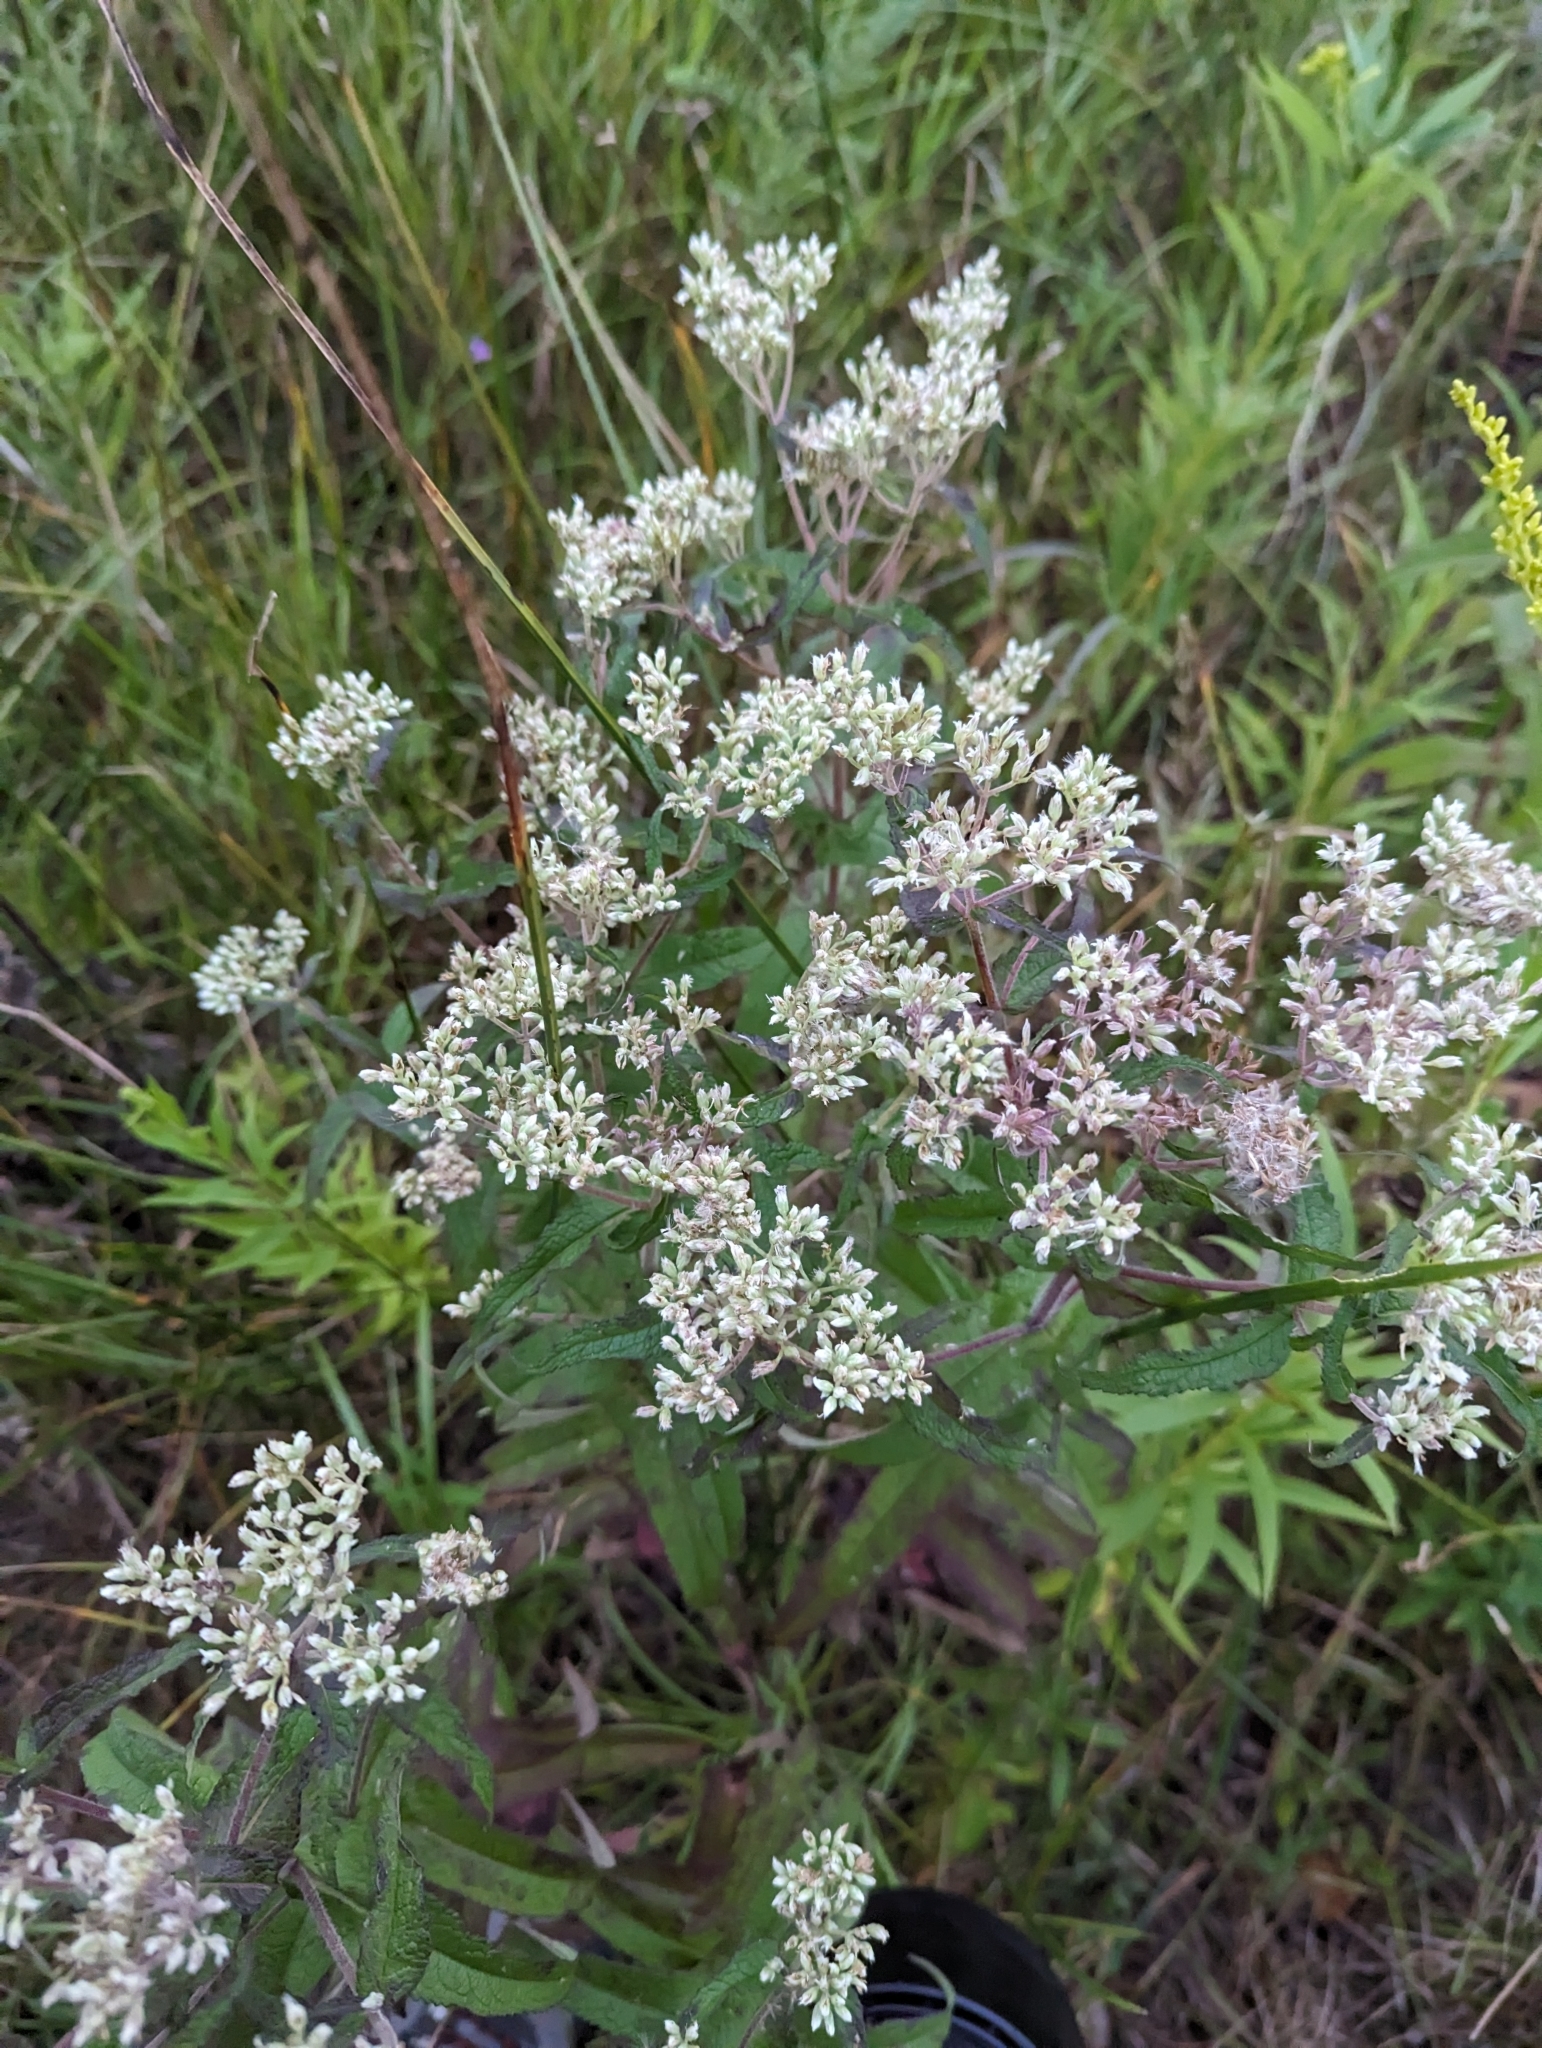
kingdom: Plantae
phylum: Tracheophyta
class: Magnoliopsida
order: Asterales
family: Asteraceae
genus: Eupatorium
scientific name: Eupatorium perfoliatum
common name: Boneset
